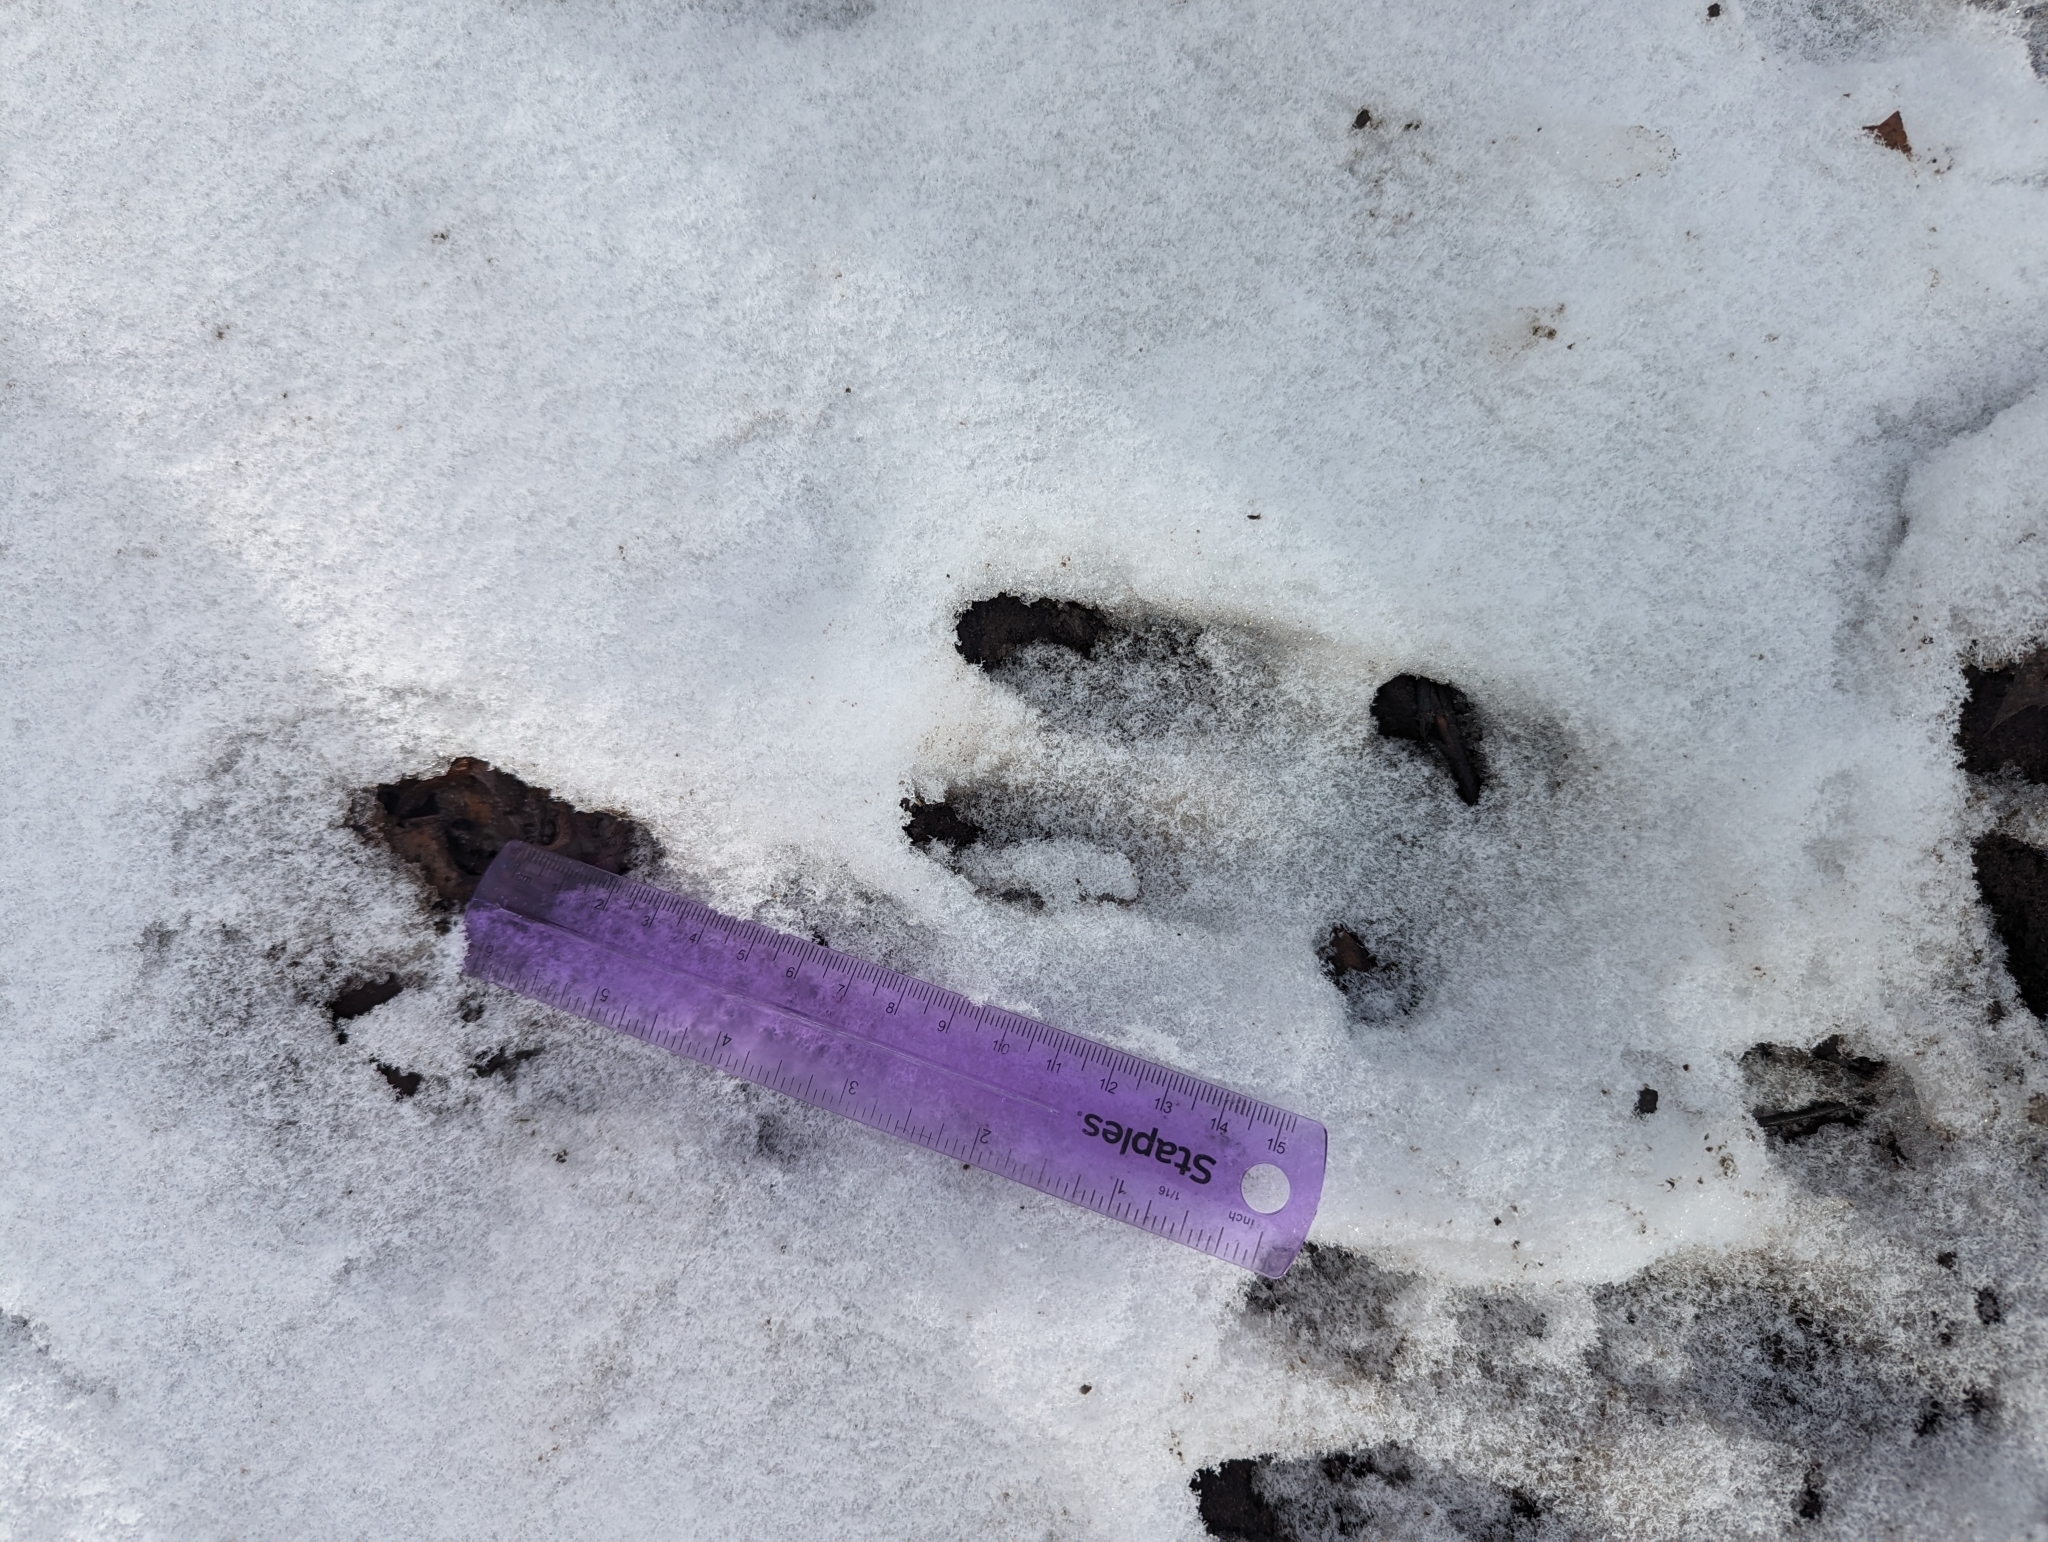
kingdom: Animalia
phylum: Chordata
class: Mammalia
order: Artiodactyla
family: Cervidae
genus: Odocoileus
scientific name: Odocoileus virginianus
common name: White-tailed deer
